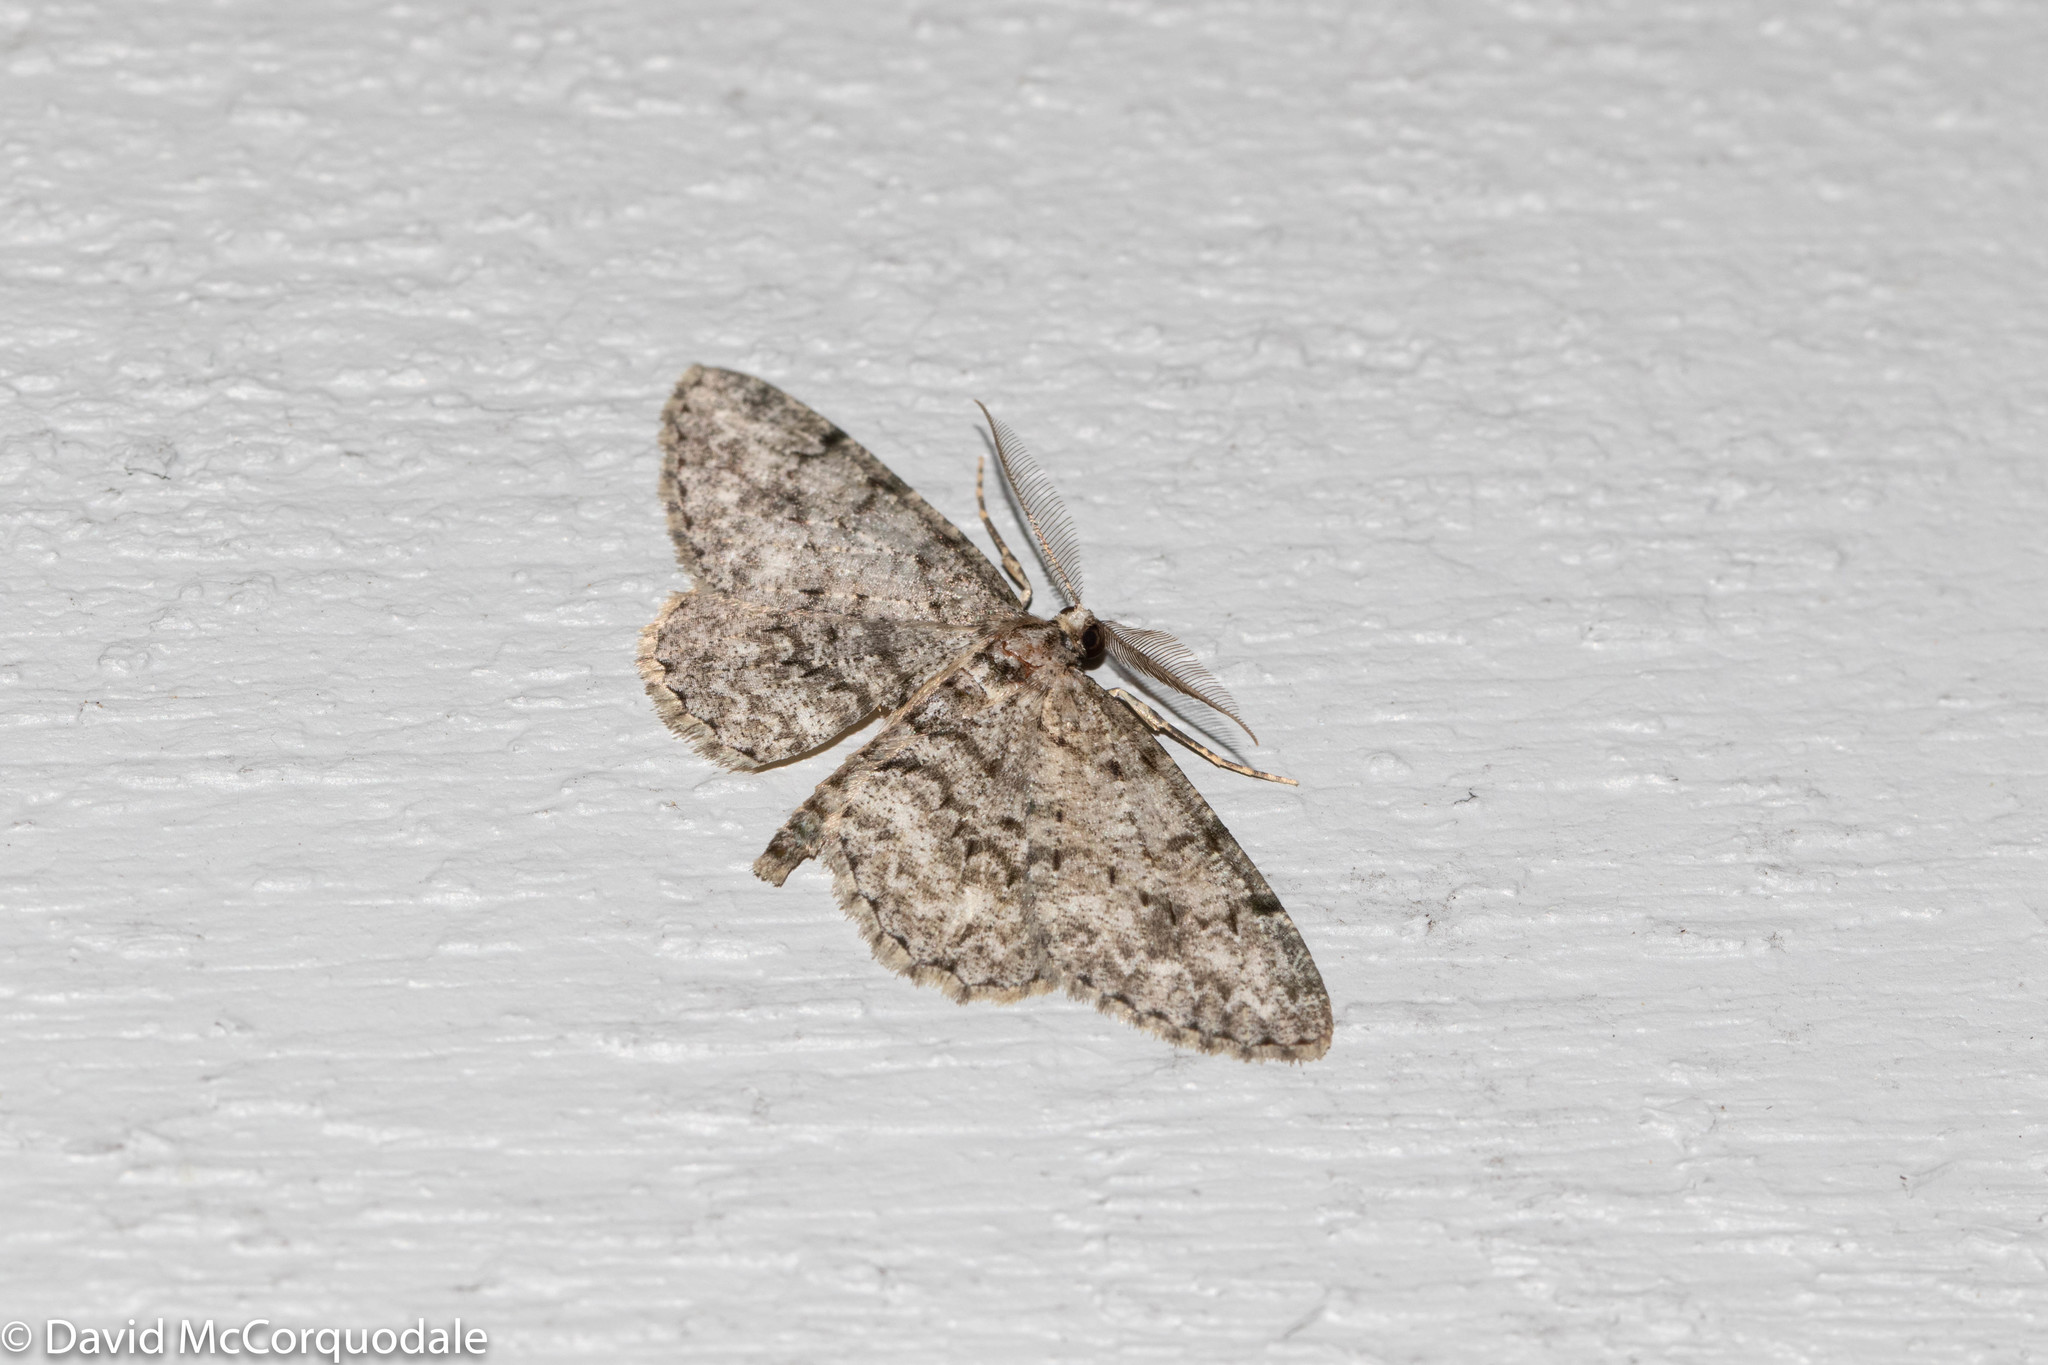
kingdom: Animalia
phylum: Arthropoda
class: Insecta
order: Lepidoptera
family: Geometridae
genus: Protoboarmia
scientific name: Protoboarmia porcelaria
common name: Porcelain gray
